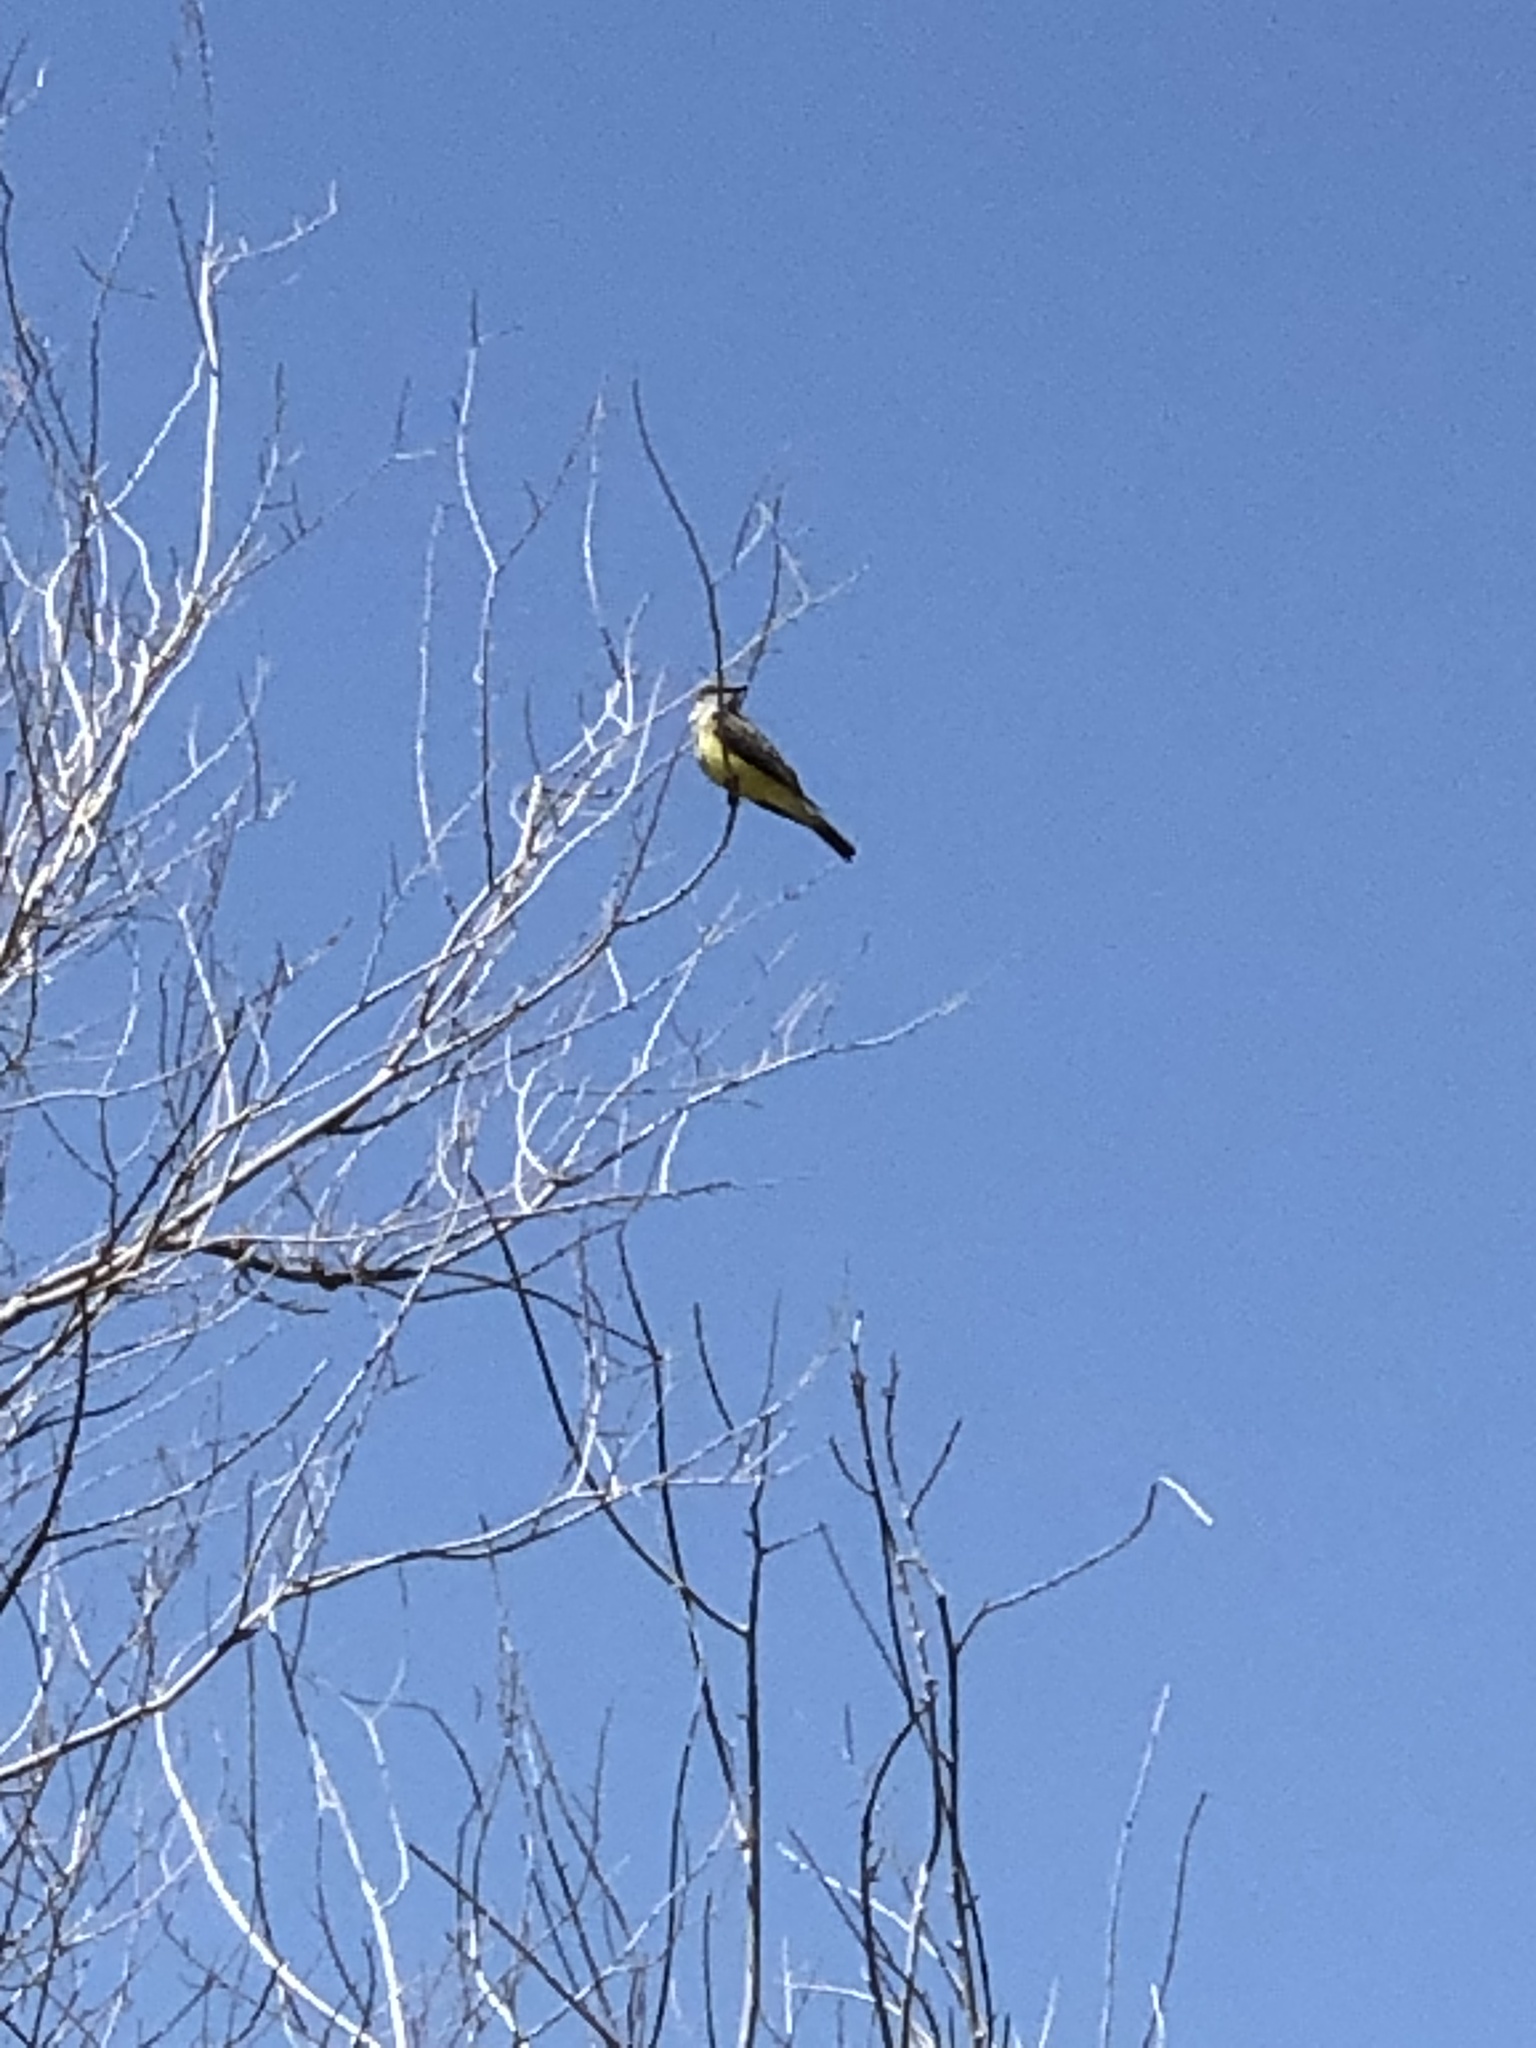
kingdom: Animalia
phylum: Chordata
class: Aves
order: Passeriformes
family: Tyrannidae
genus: Tyrannus
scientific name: Tyrannus verticalis
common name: Western kingbird
